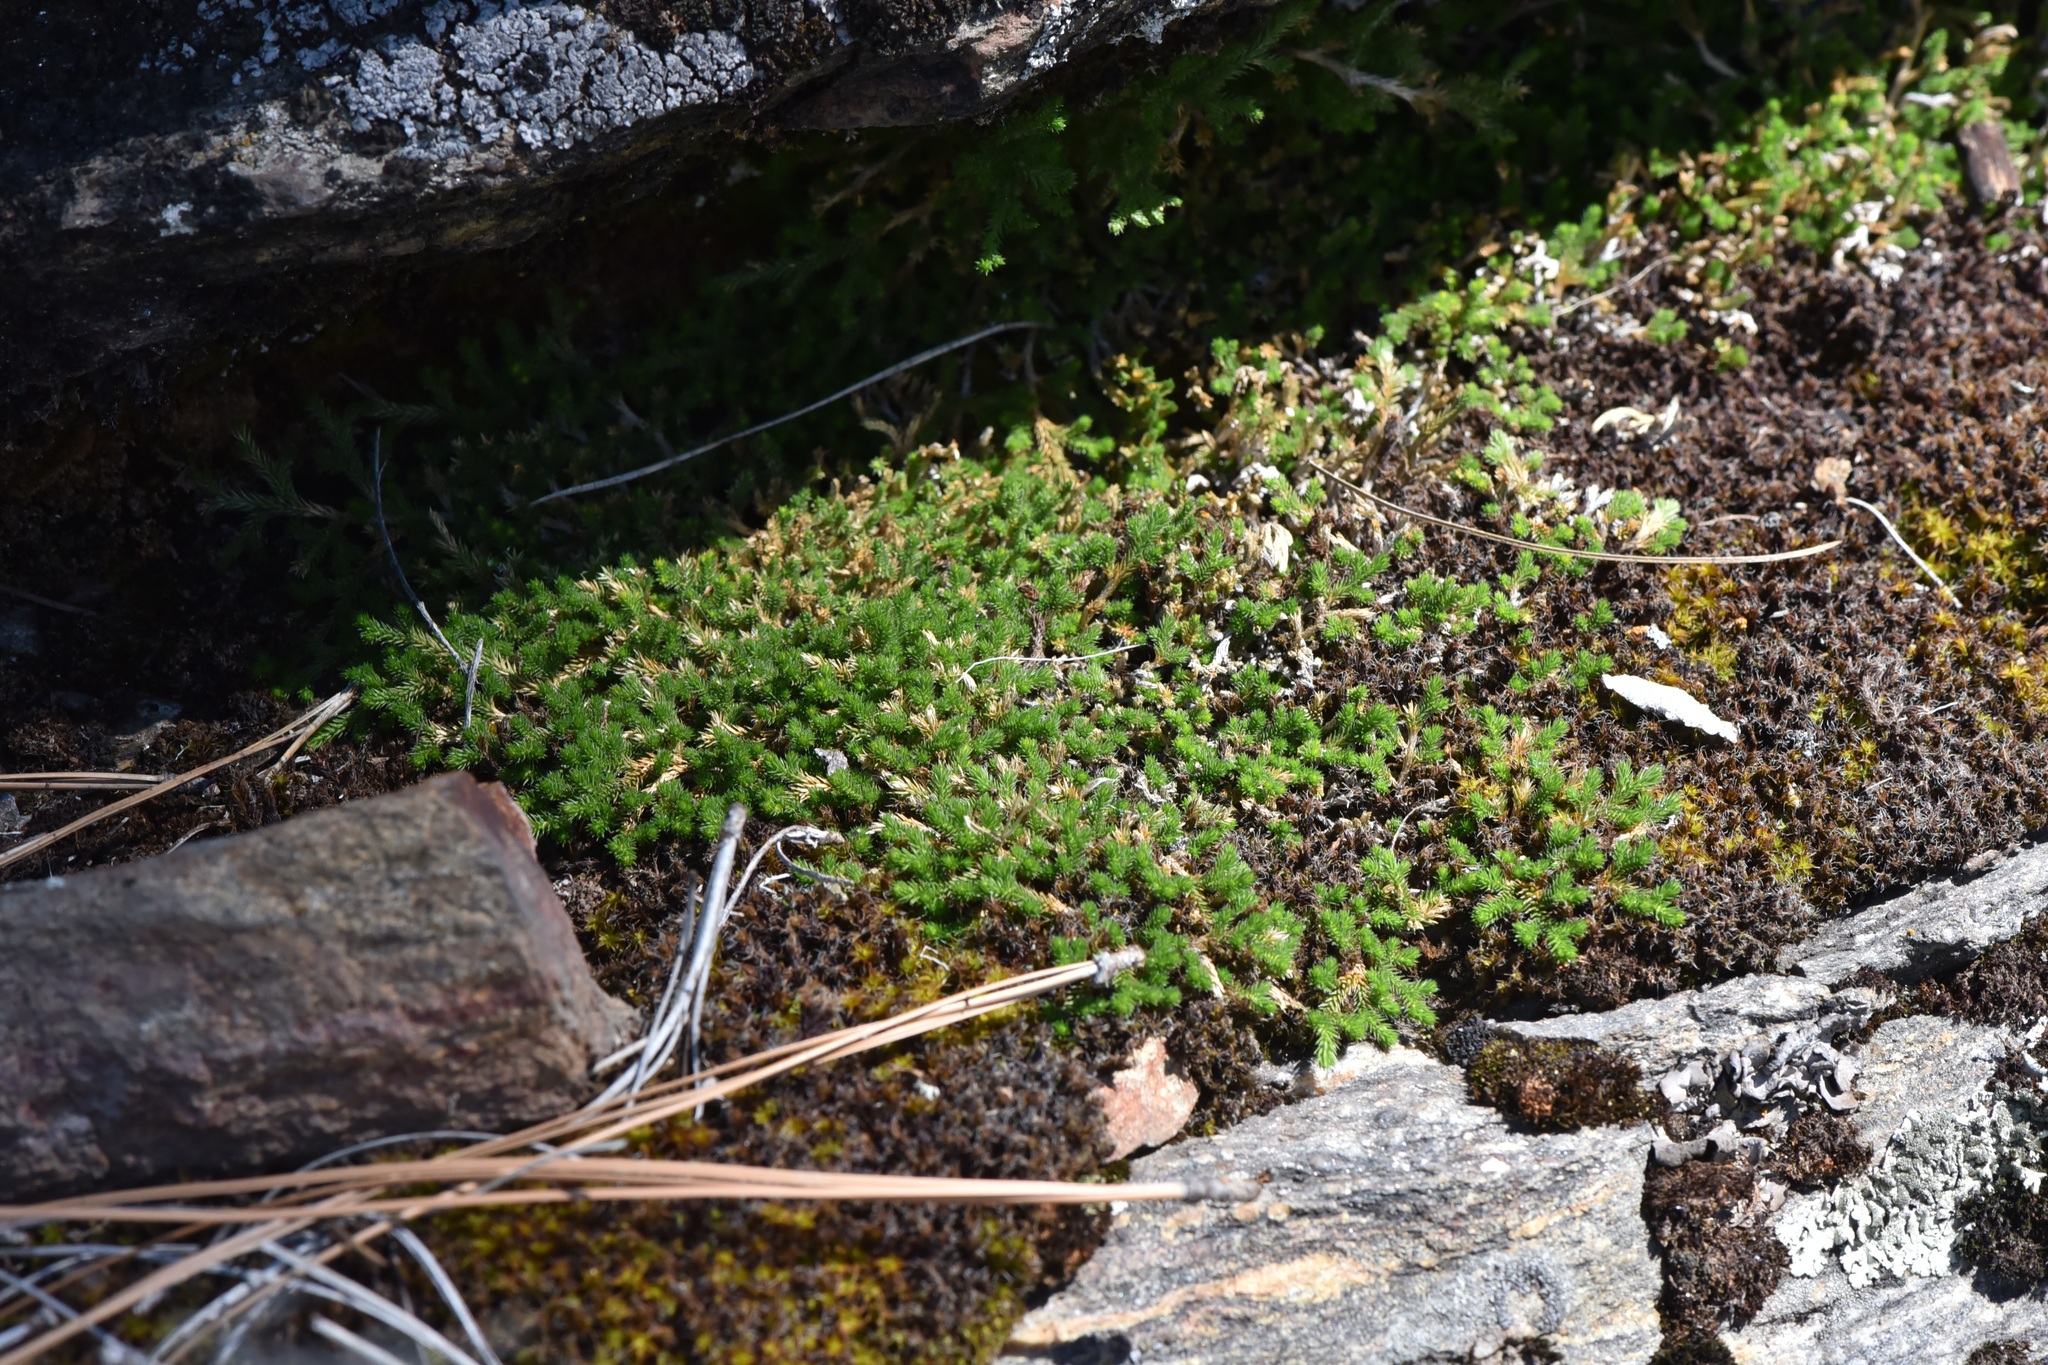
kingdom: Plantae
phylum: Tracheophyta
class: Lycopodiopsida
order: Selaginellales
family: Selaginellaceae
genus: Selaginella
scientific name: Selaginella wallacei
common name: Wallace's selaginella
